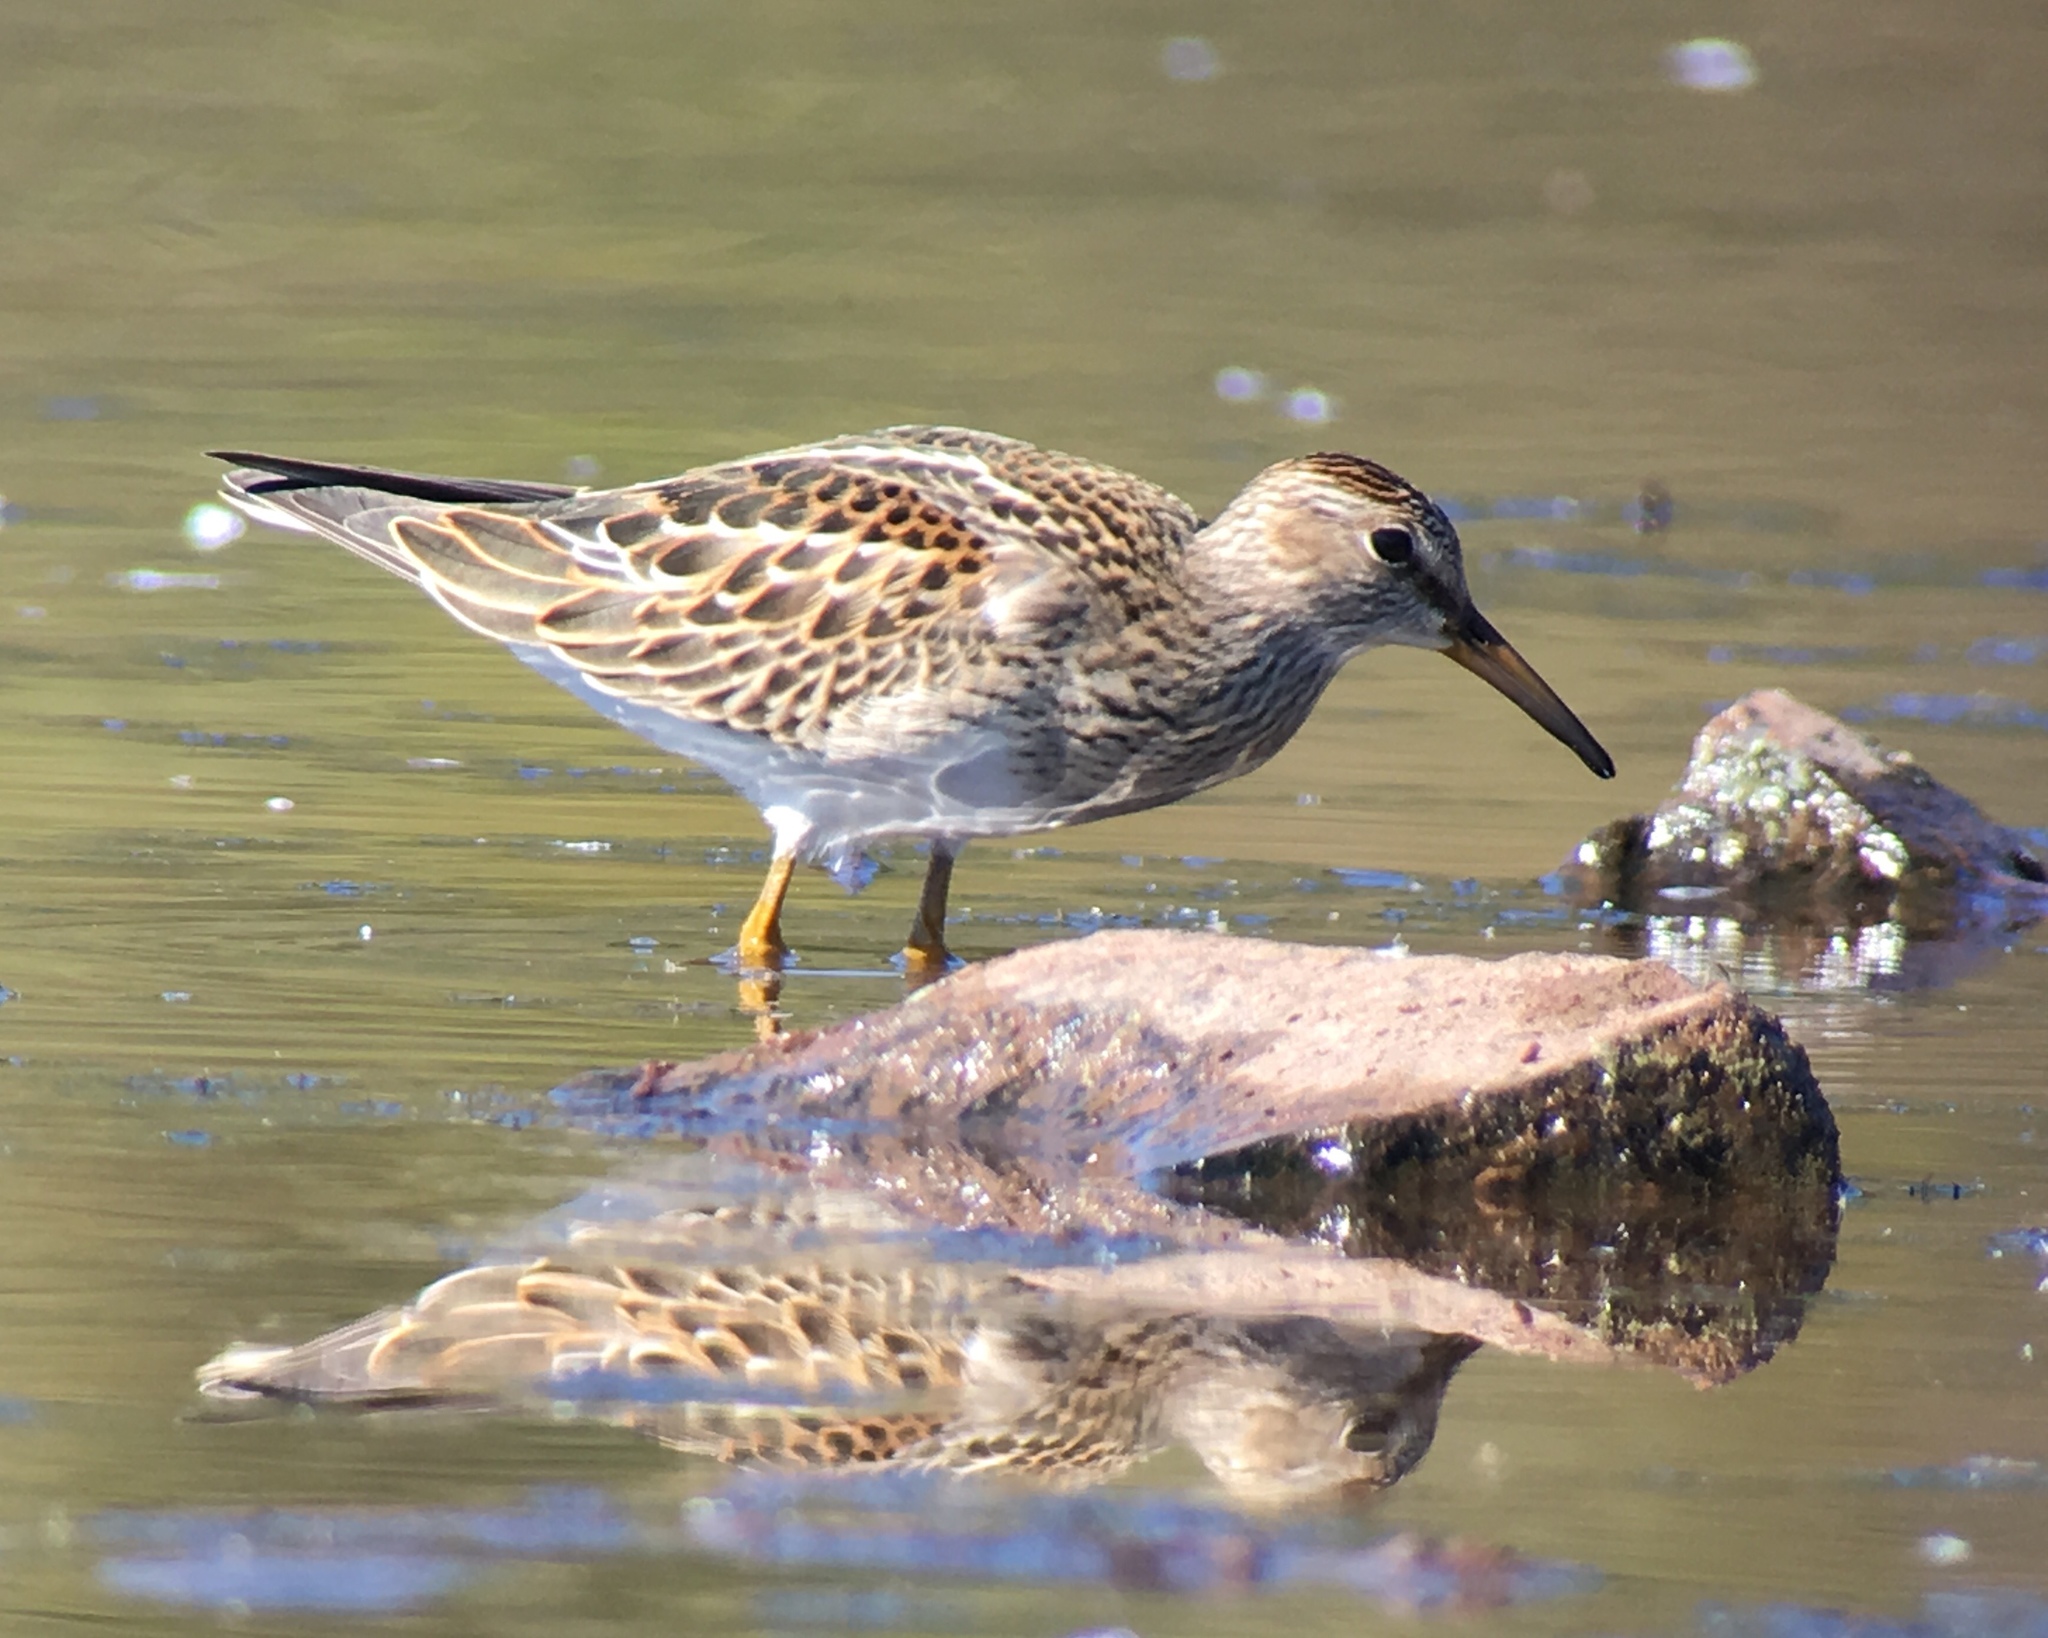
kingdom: Animalia
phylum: Chordata
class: Aves
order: Charadriiformes
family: Scolopacidae
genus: Calidris
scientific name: Calidris melanotos
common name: Pectoral sandpiper
